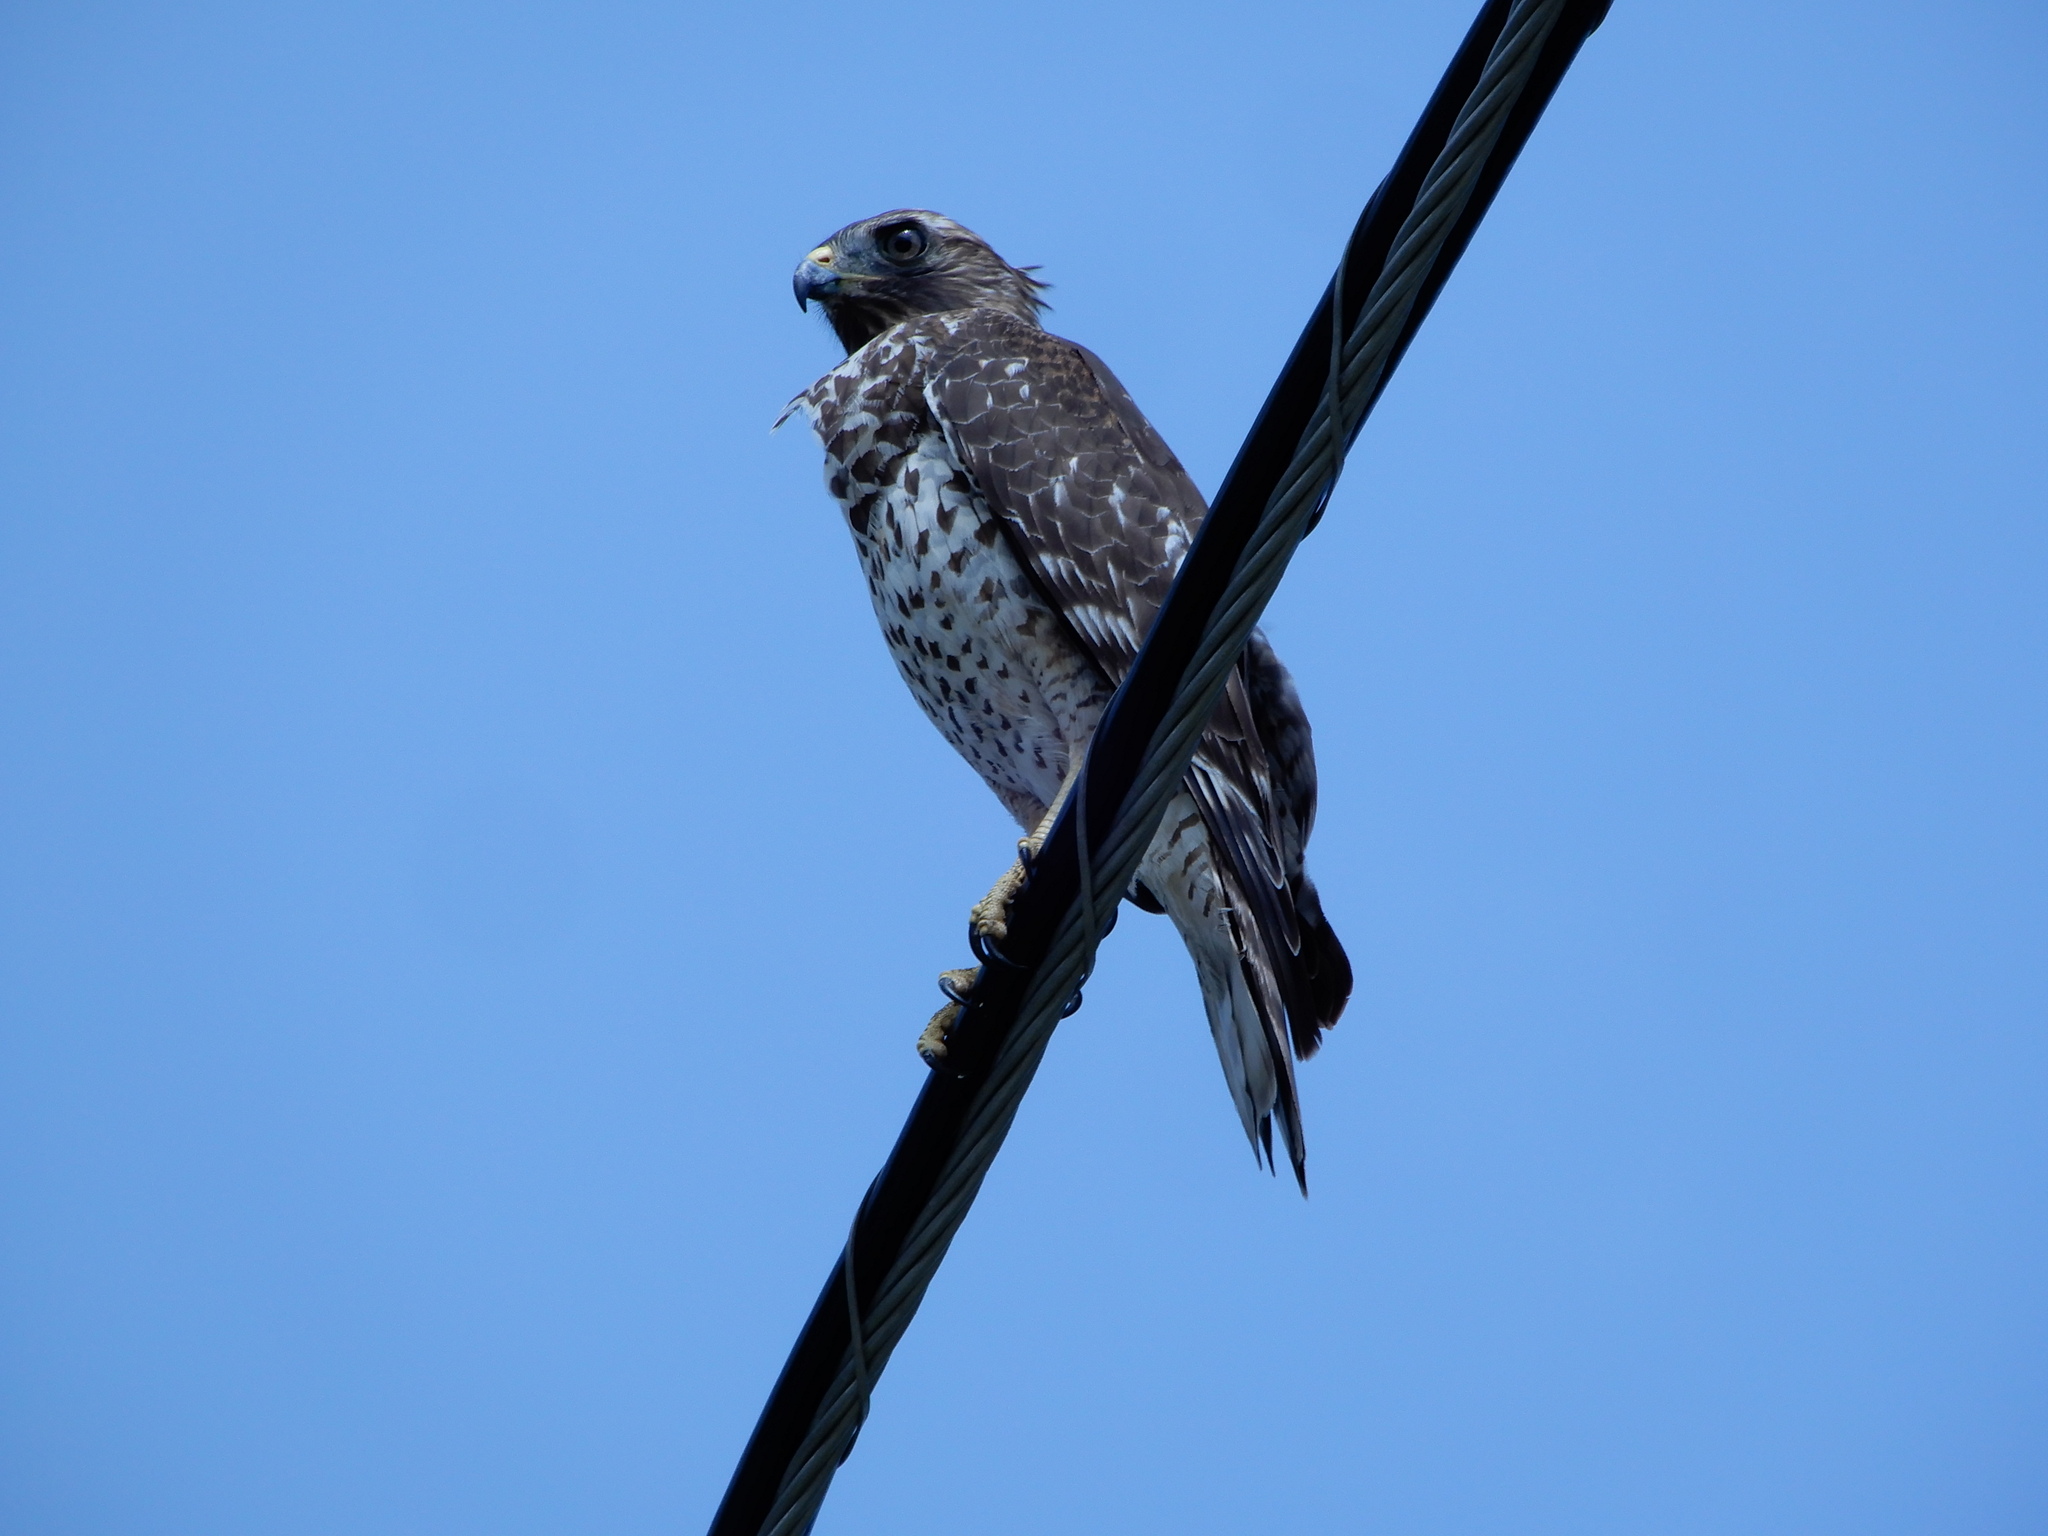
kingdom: Animalia
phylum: Chordata
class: Aves
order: Accipitriformes
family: Accipitridae
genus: Buteo
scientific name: Buteo lineatus
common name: Red-shouldered hawk
